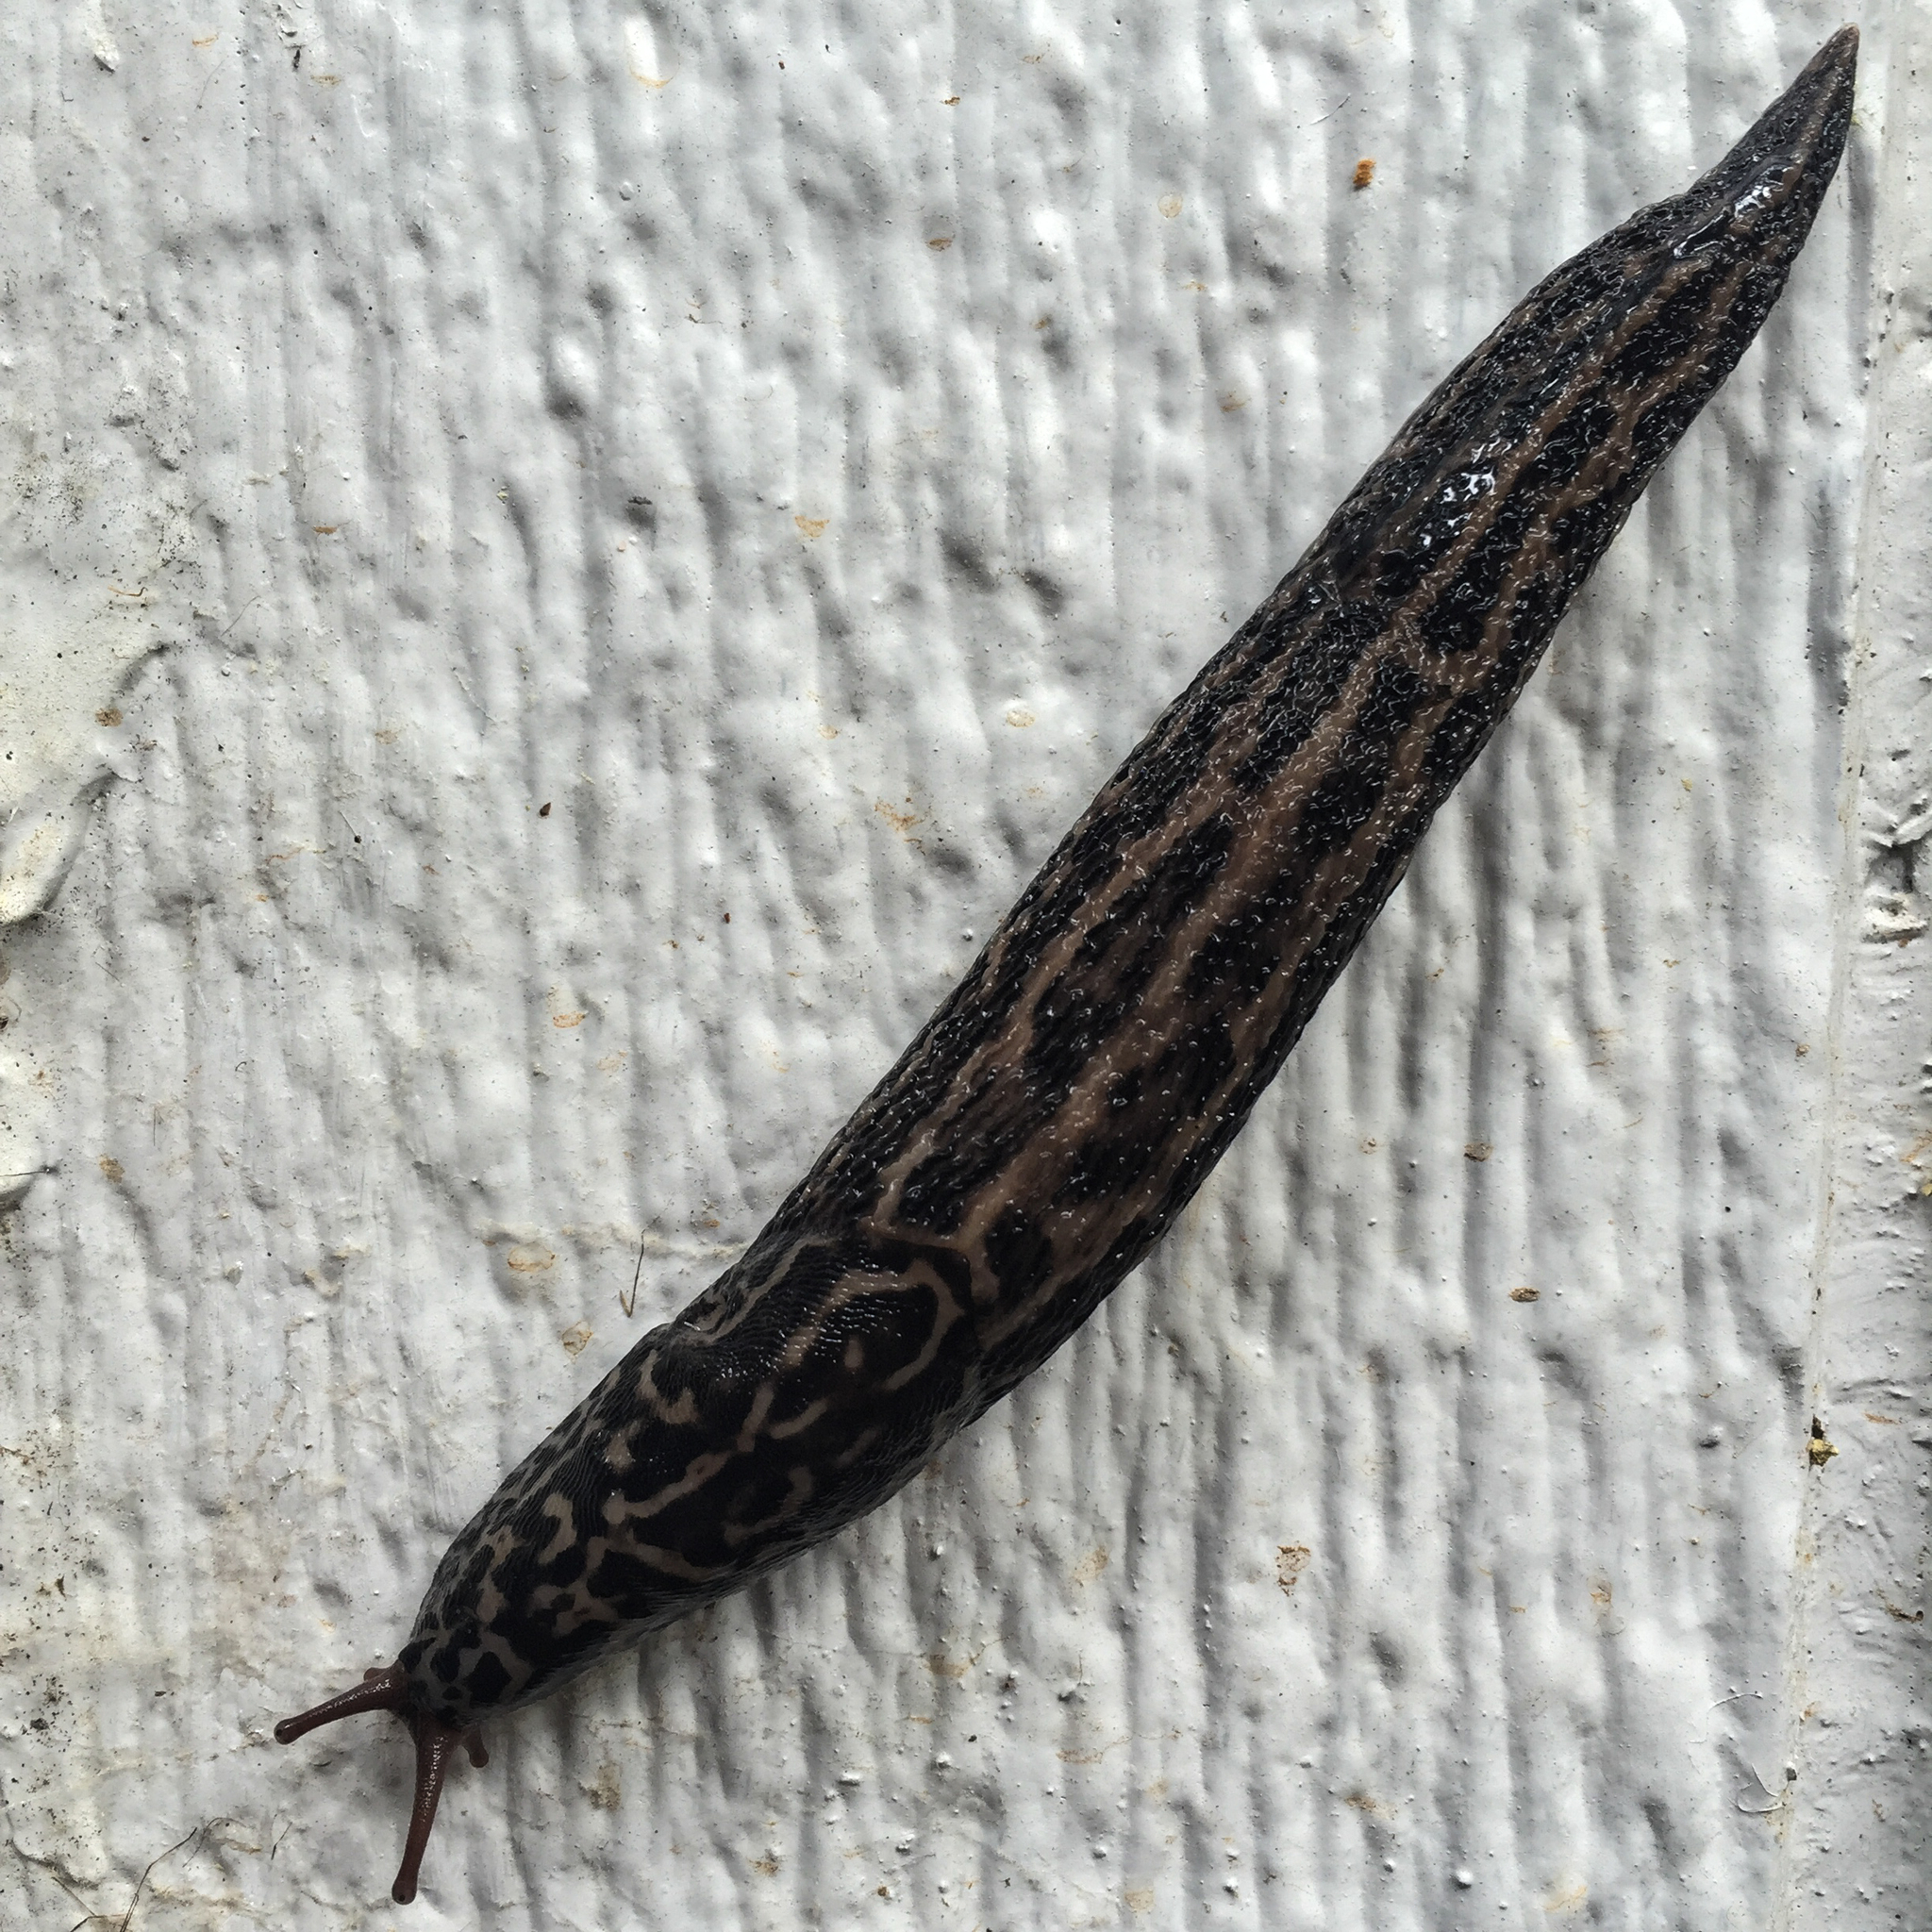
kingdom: Animalia
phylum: Mollusca
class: Gastropoda
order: Stylommatophora
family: Limacidae
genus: Limax
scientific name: Limax maximus
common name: Great grey slug
